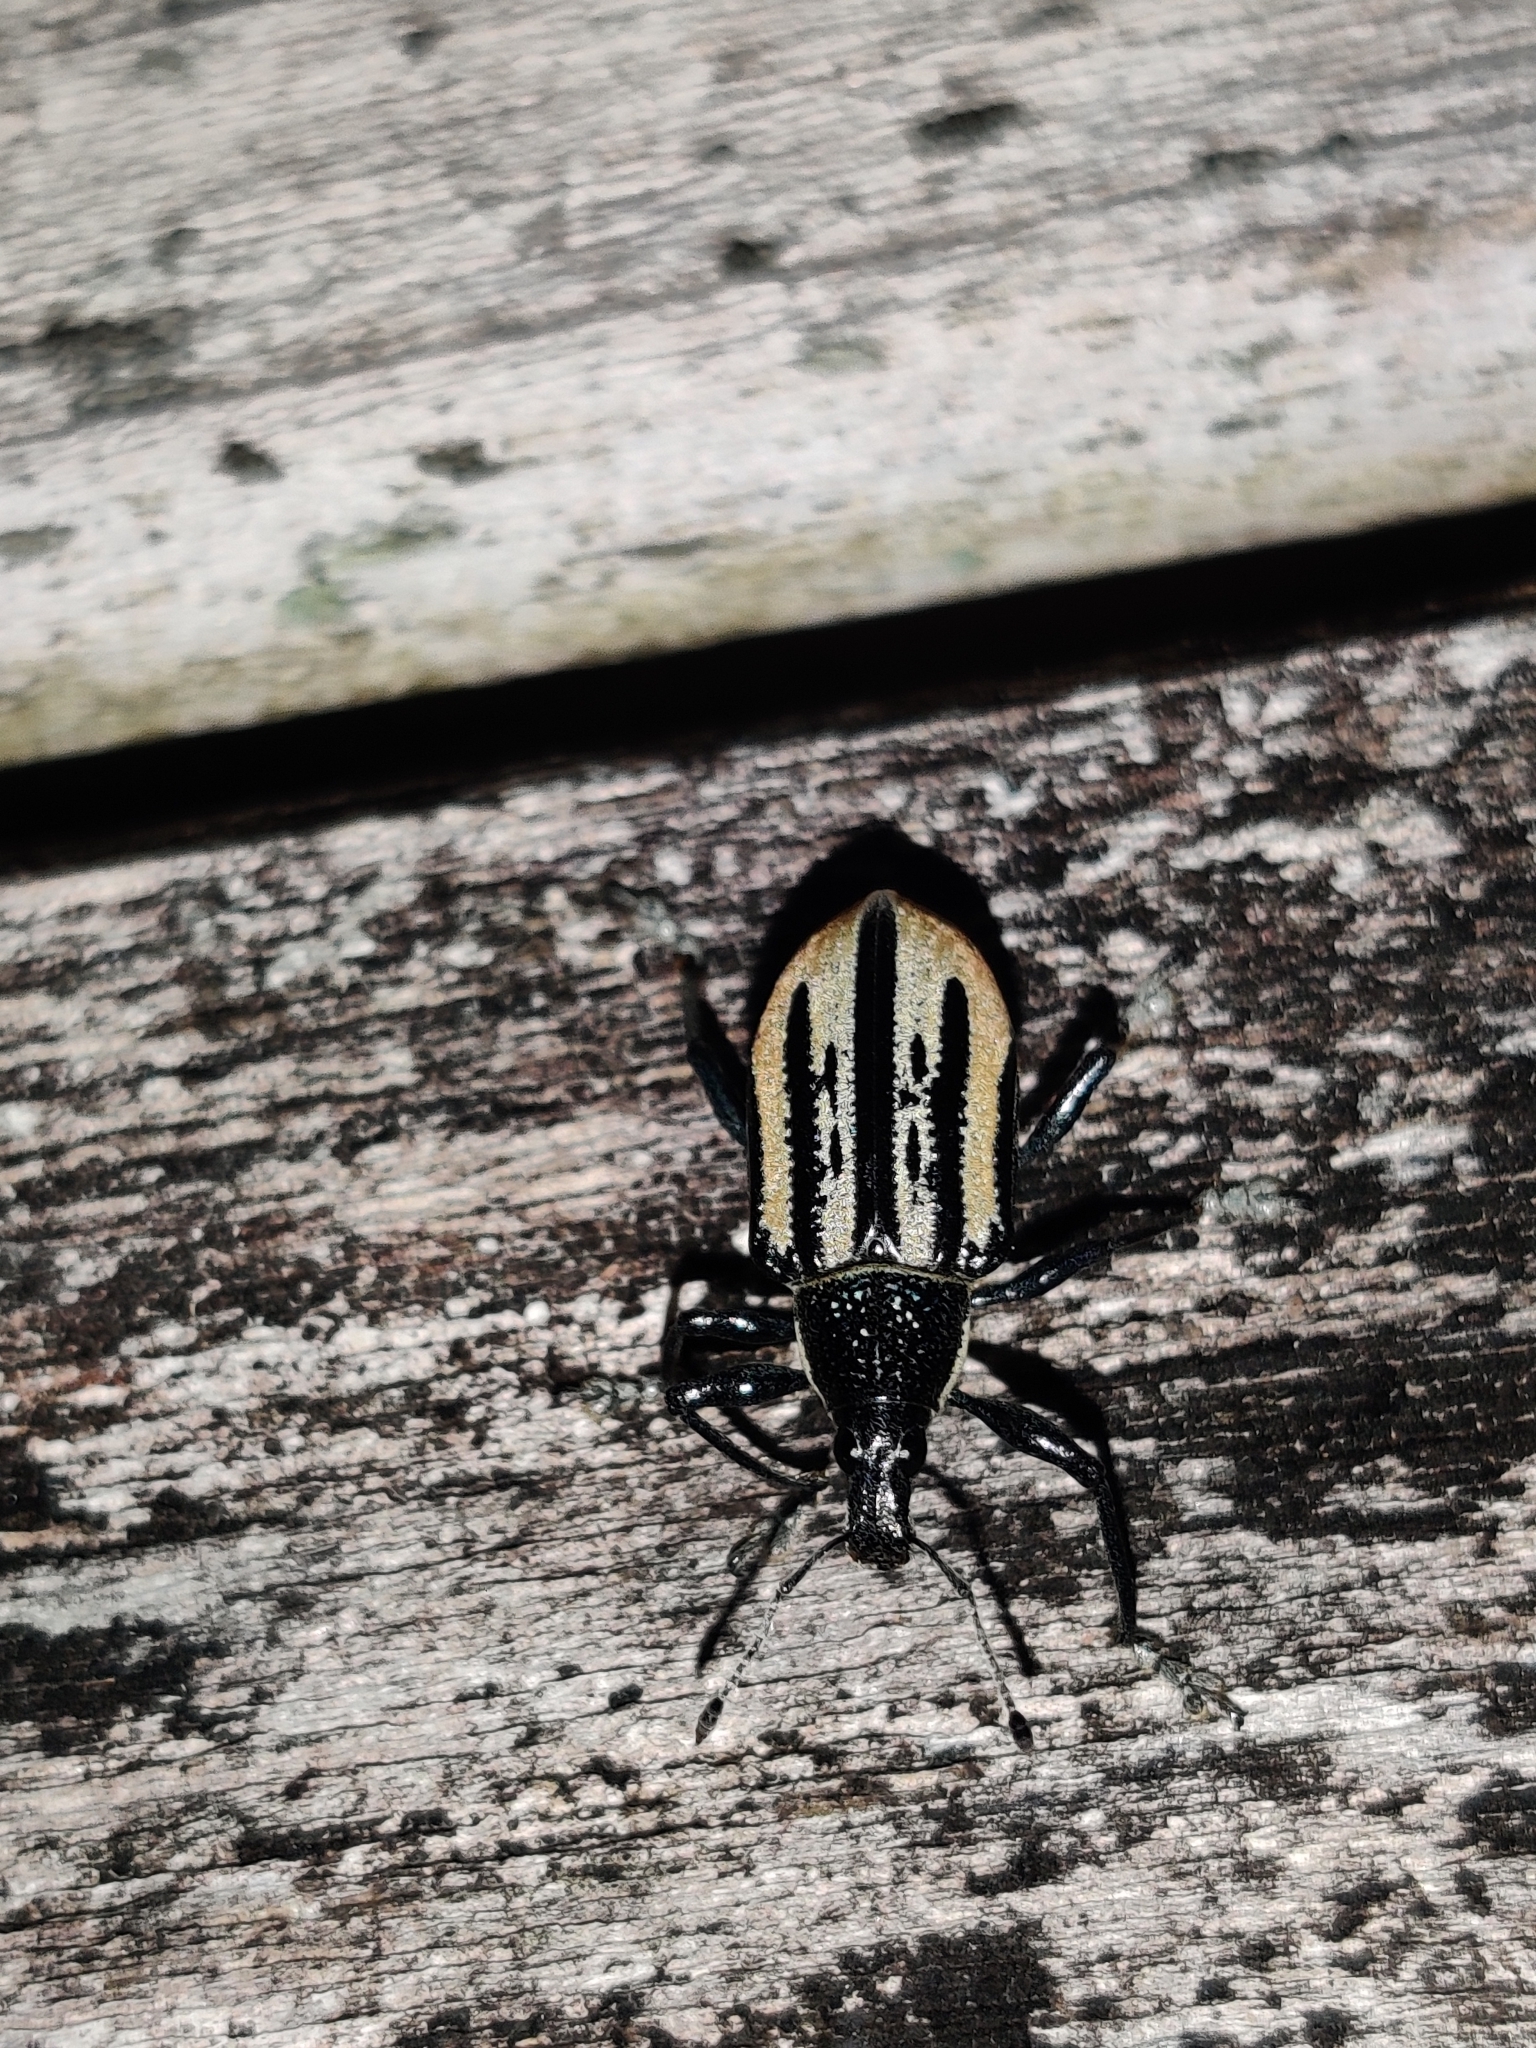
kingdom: Animalia
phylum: Arthropoda
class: Insecta
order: Coleoptera
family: Curculionidae
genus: Diaprepes
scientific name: Diaprepes abbreviatus
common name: Root weevil
